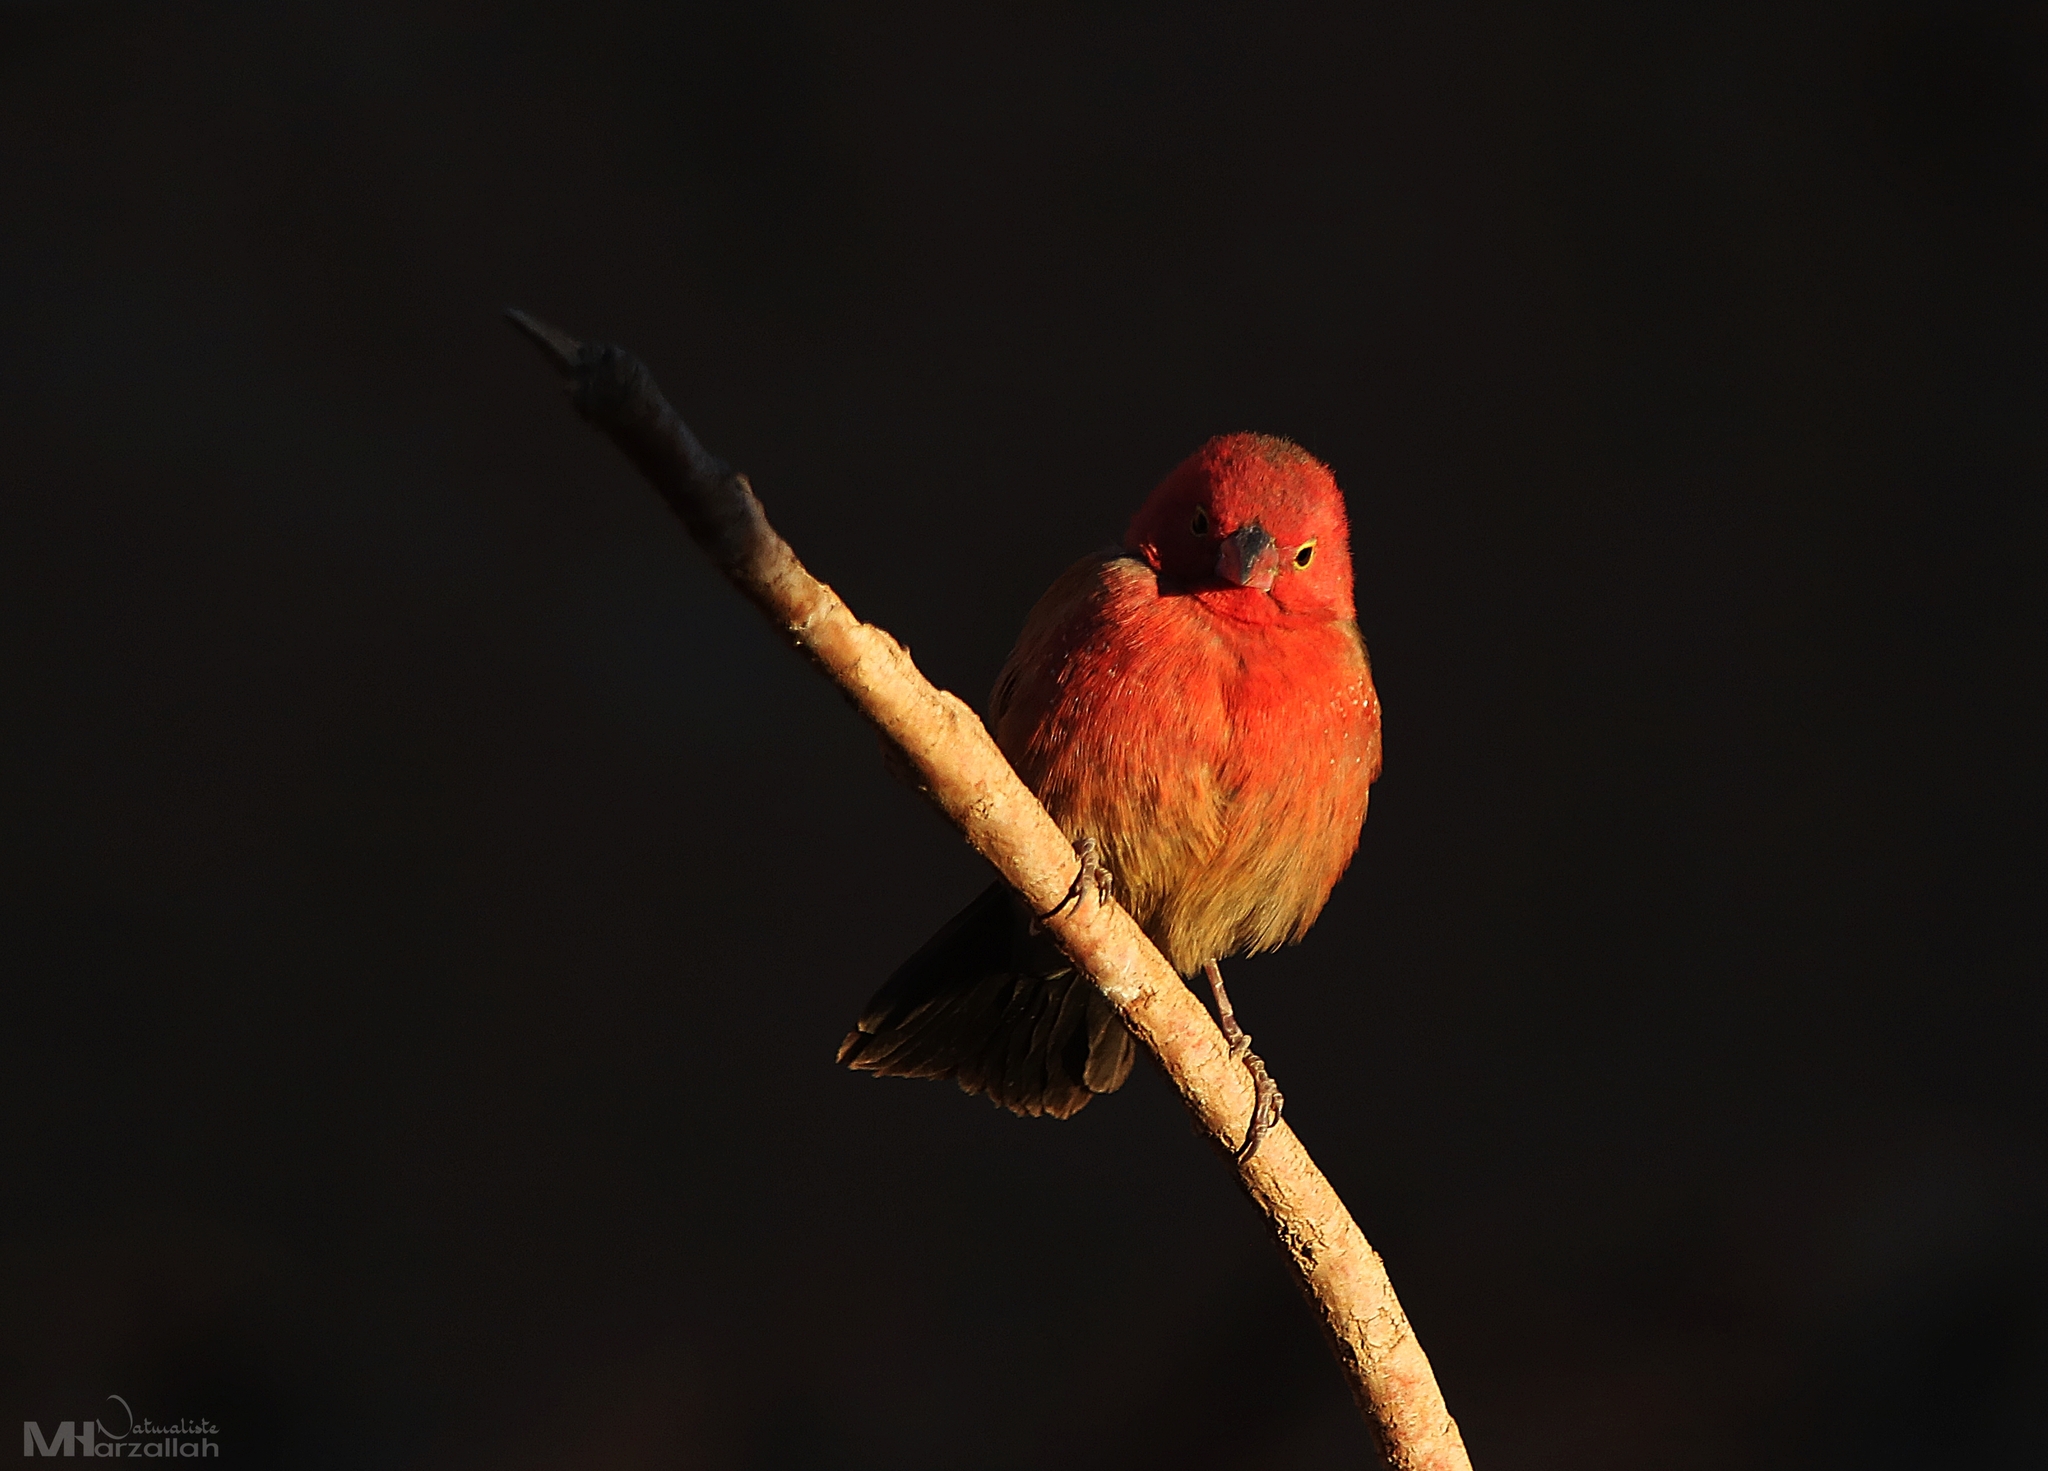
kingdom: Animalia
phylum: Chordata
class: Aves
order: Passeriformes
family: Estrildidae
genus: Lagonosticta
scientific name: Lagonosticta senegala
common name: Red-billed firefinch
